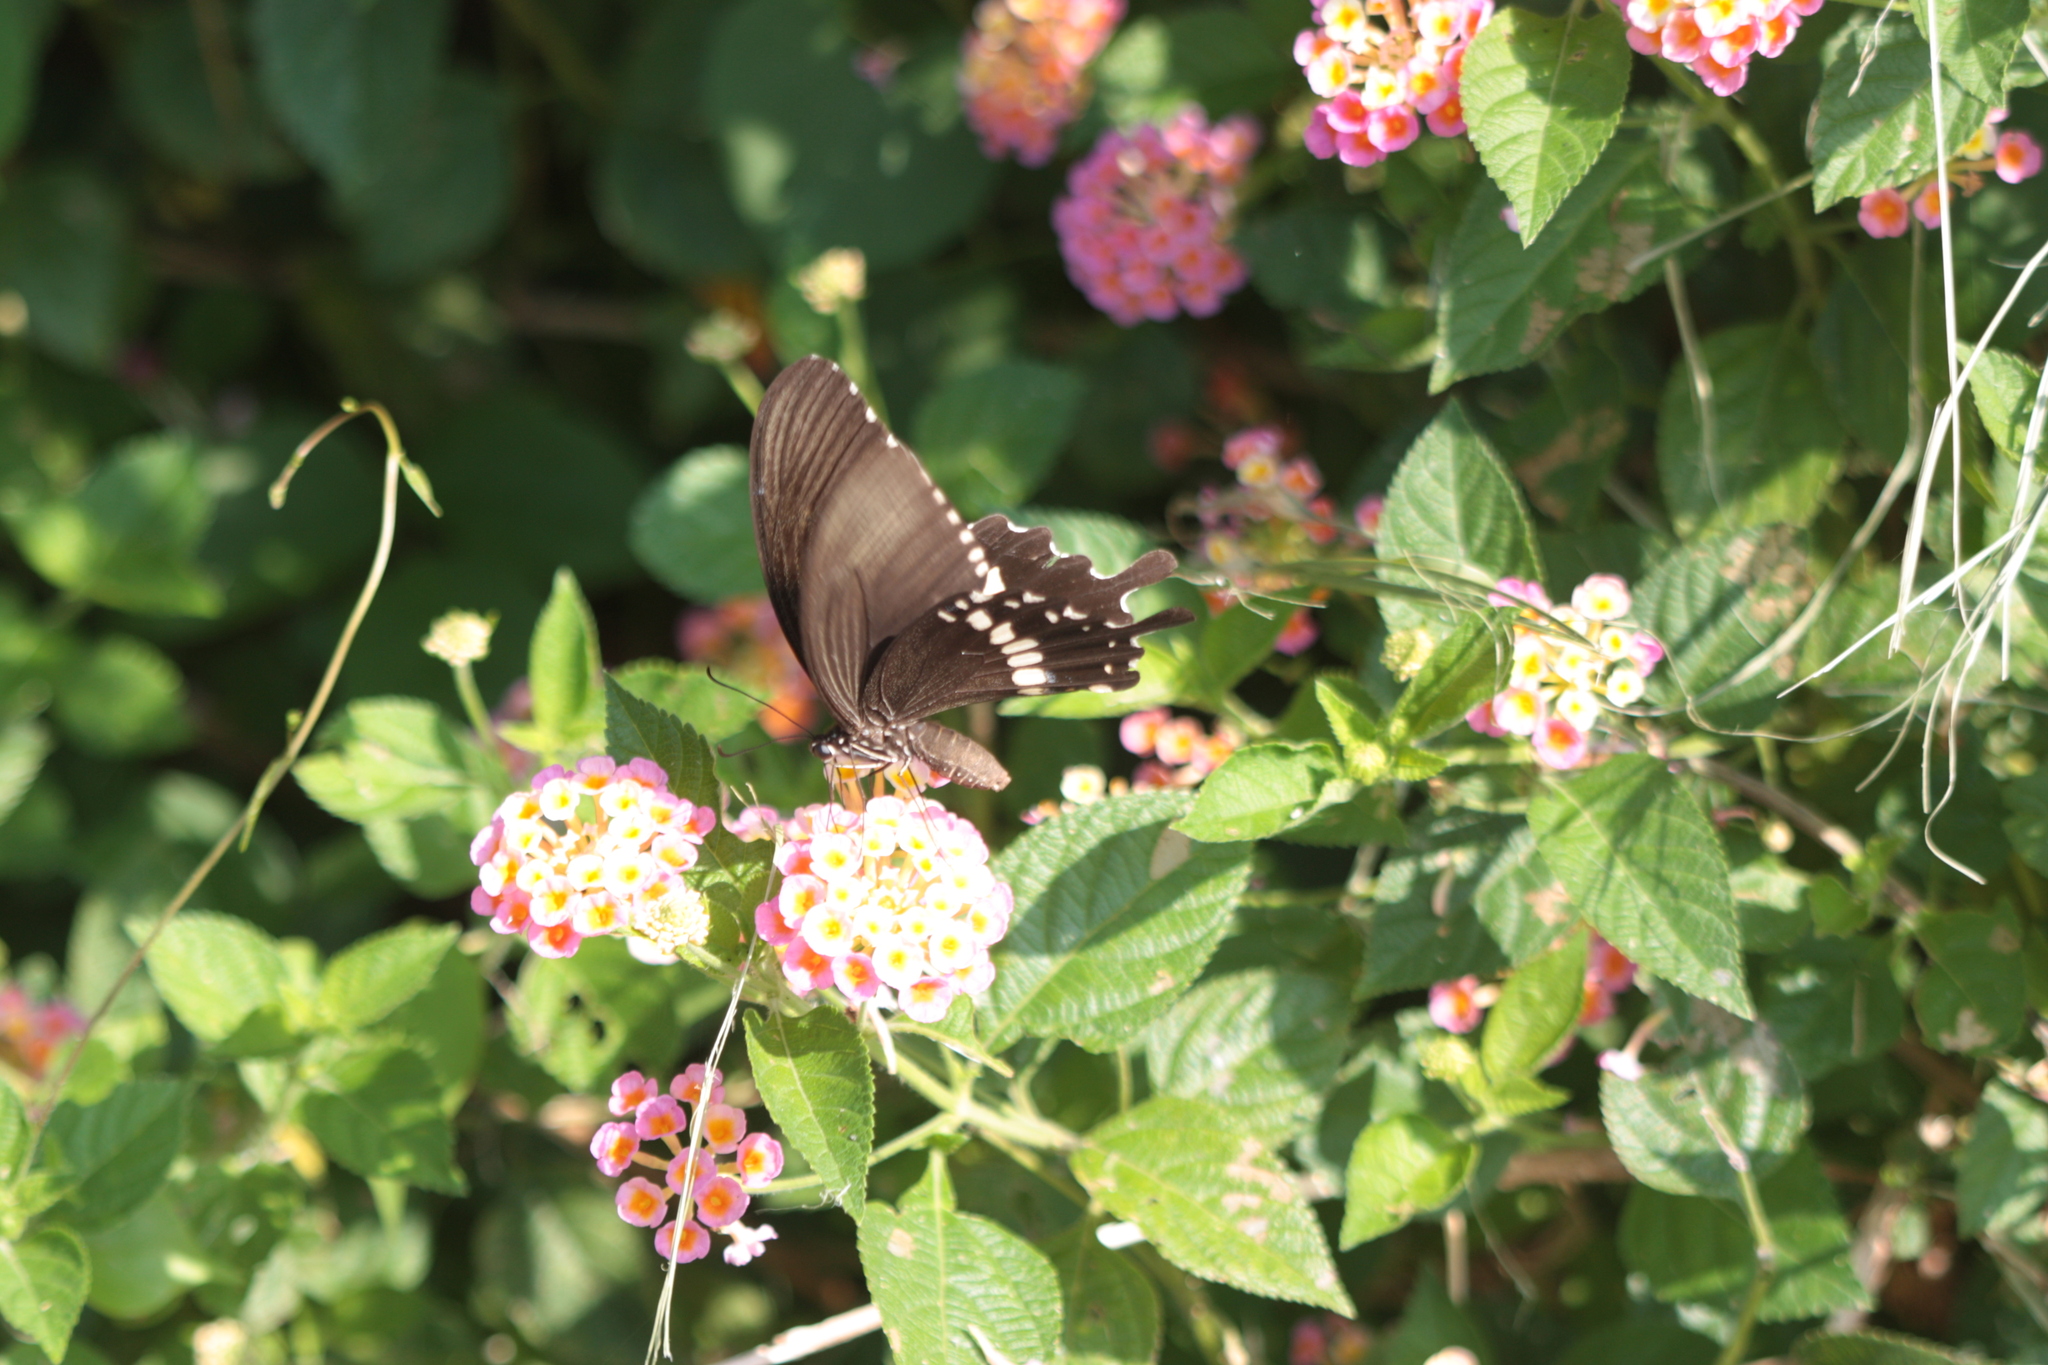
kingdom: Animalia
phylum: Arthropoda
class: Insecta
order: Lepidoptera
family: Papilionidae
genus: Papilio
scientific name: Papilio polytes
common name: Common mormon
